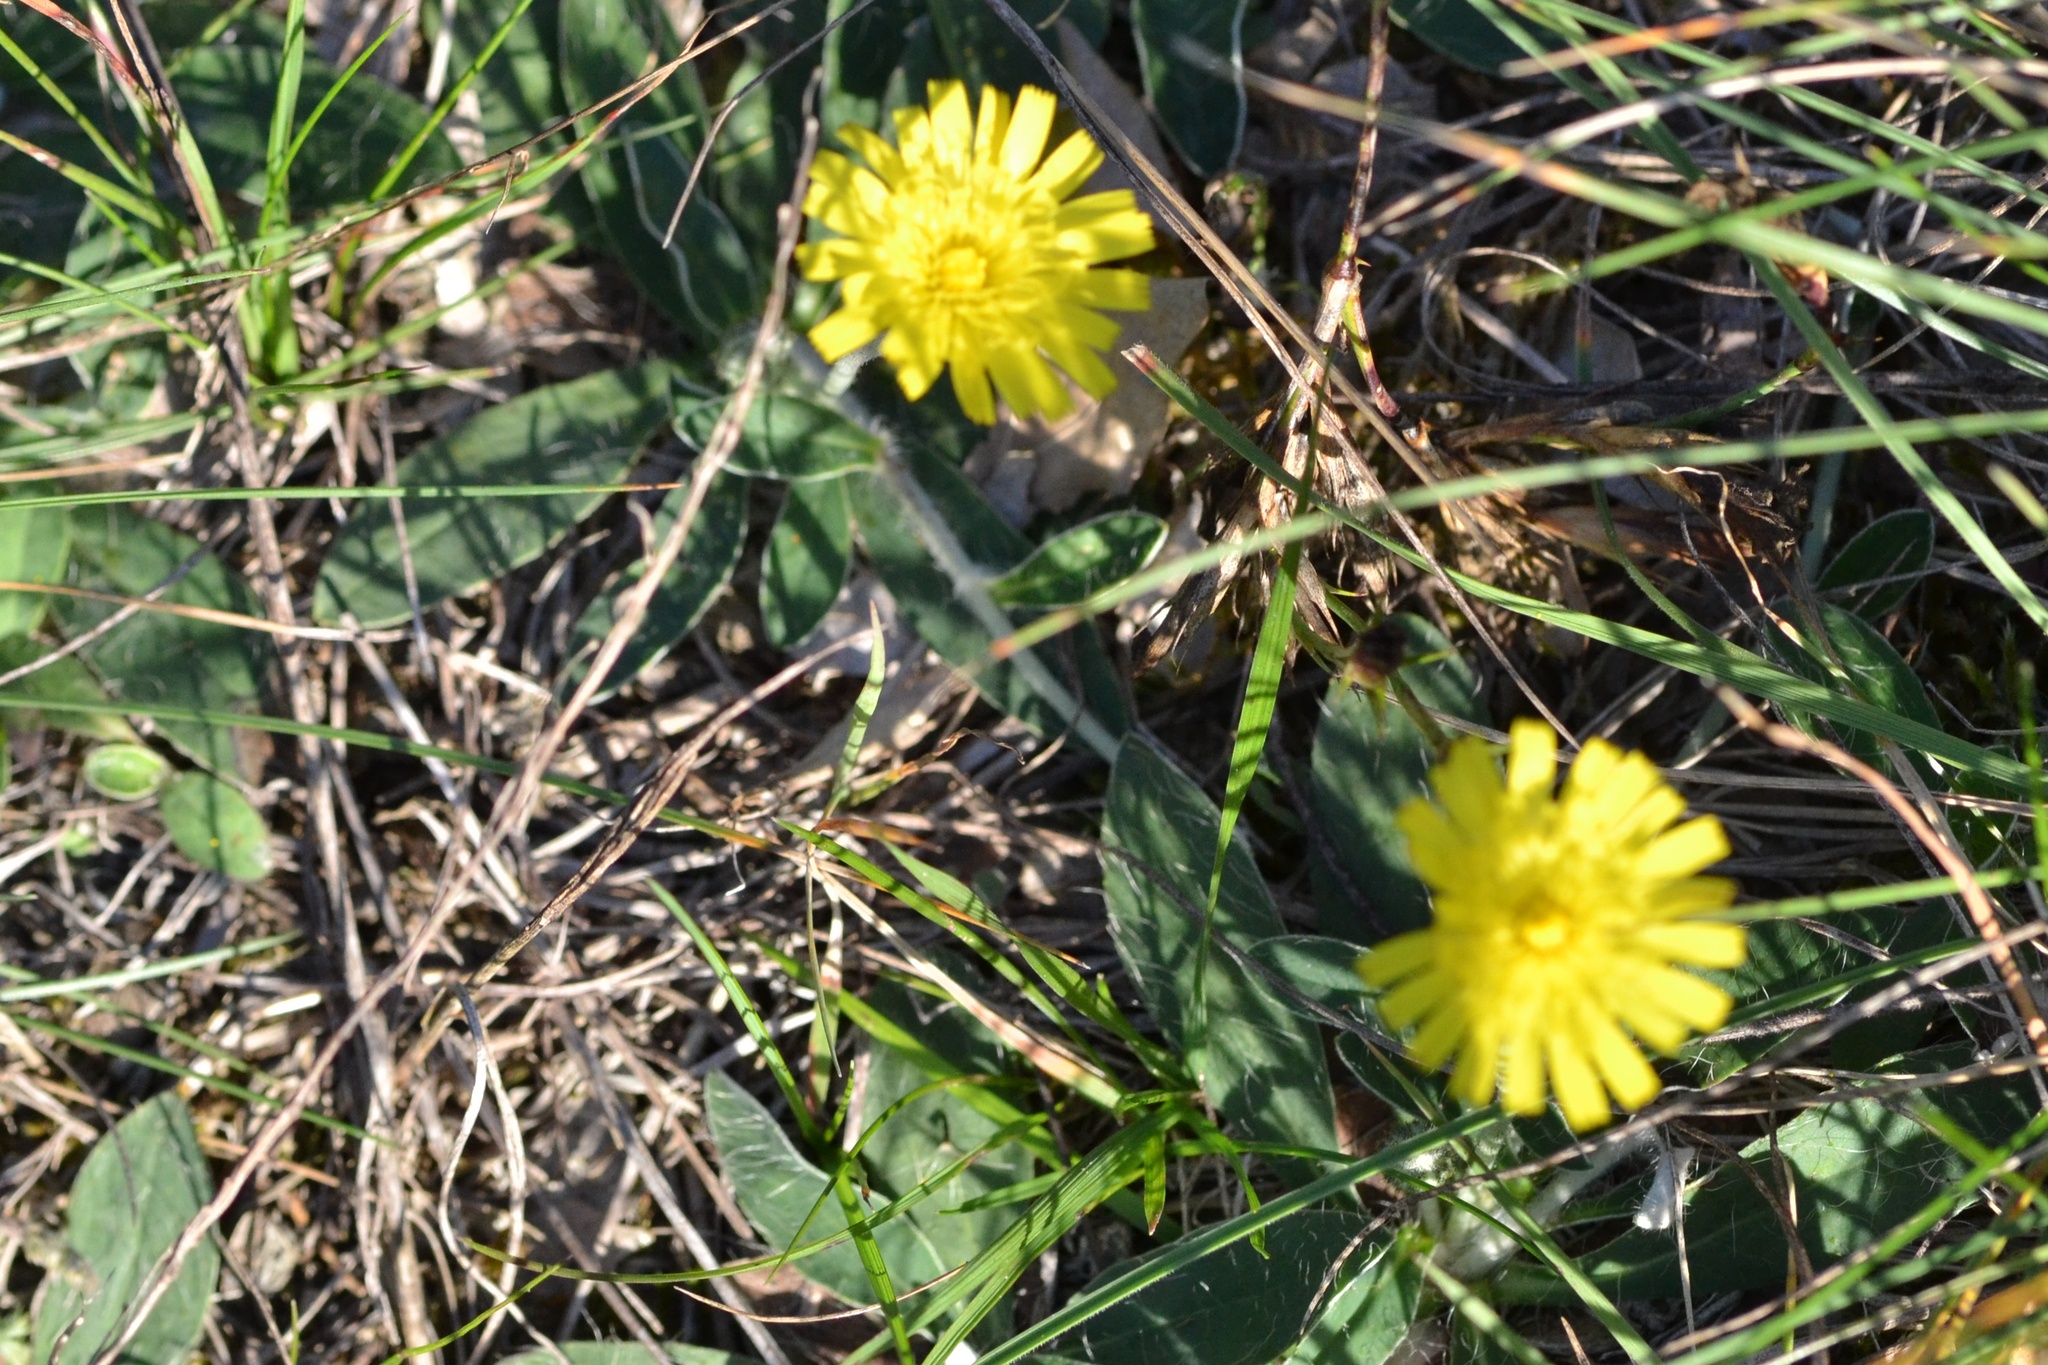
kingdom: Plantae
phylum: Tracheophyta
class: Magnoliopsida
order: Asterales
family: Asteraceae
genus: Pilosella
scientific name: Pilosella officinarum
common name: Mouse-ear hawkweed
